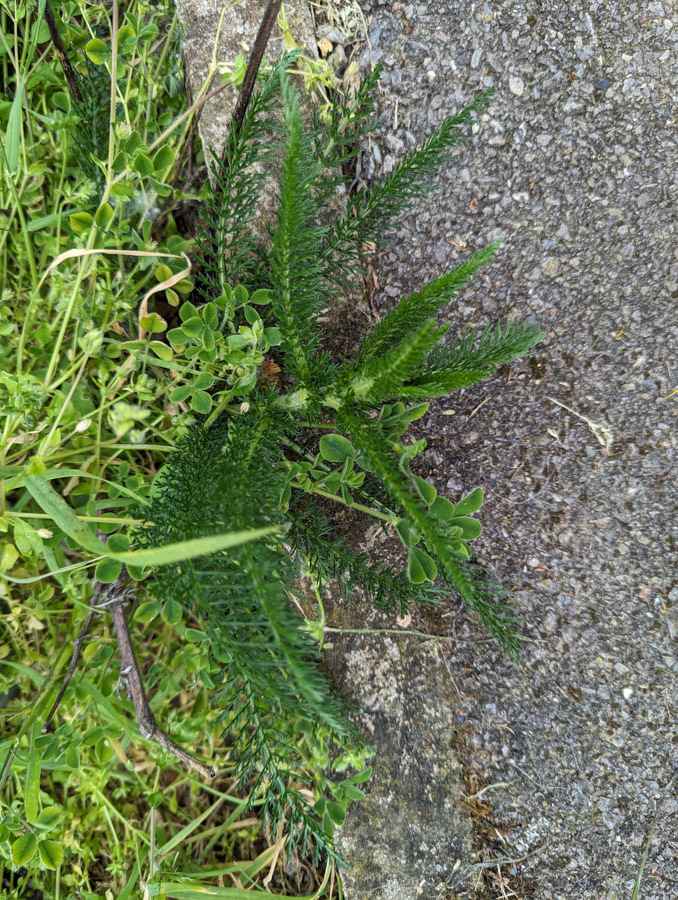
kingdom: Plantae
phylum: Tracheophyta
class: Magnoliopsida
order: Asterales
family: Asteraceae
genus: Achillea
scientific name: Achillea millefolium
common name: Yarrow
